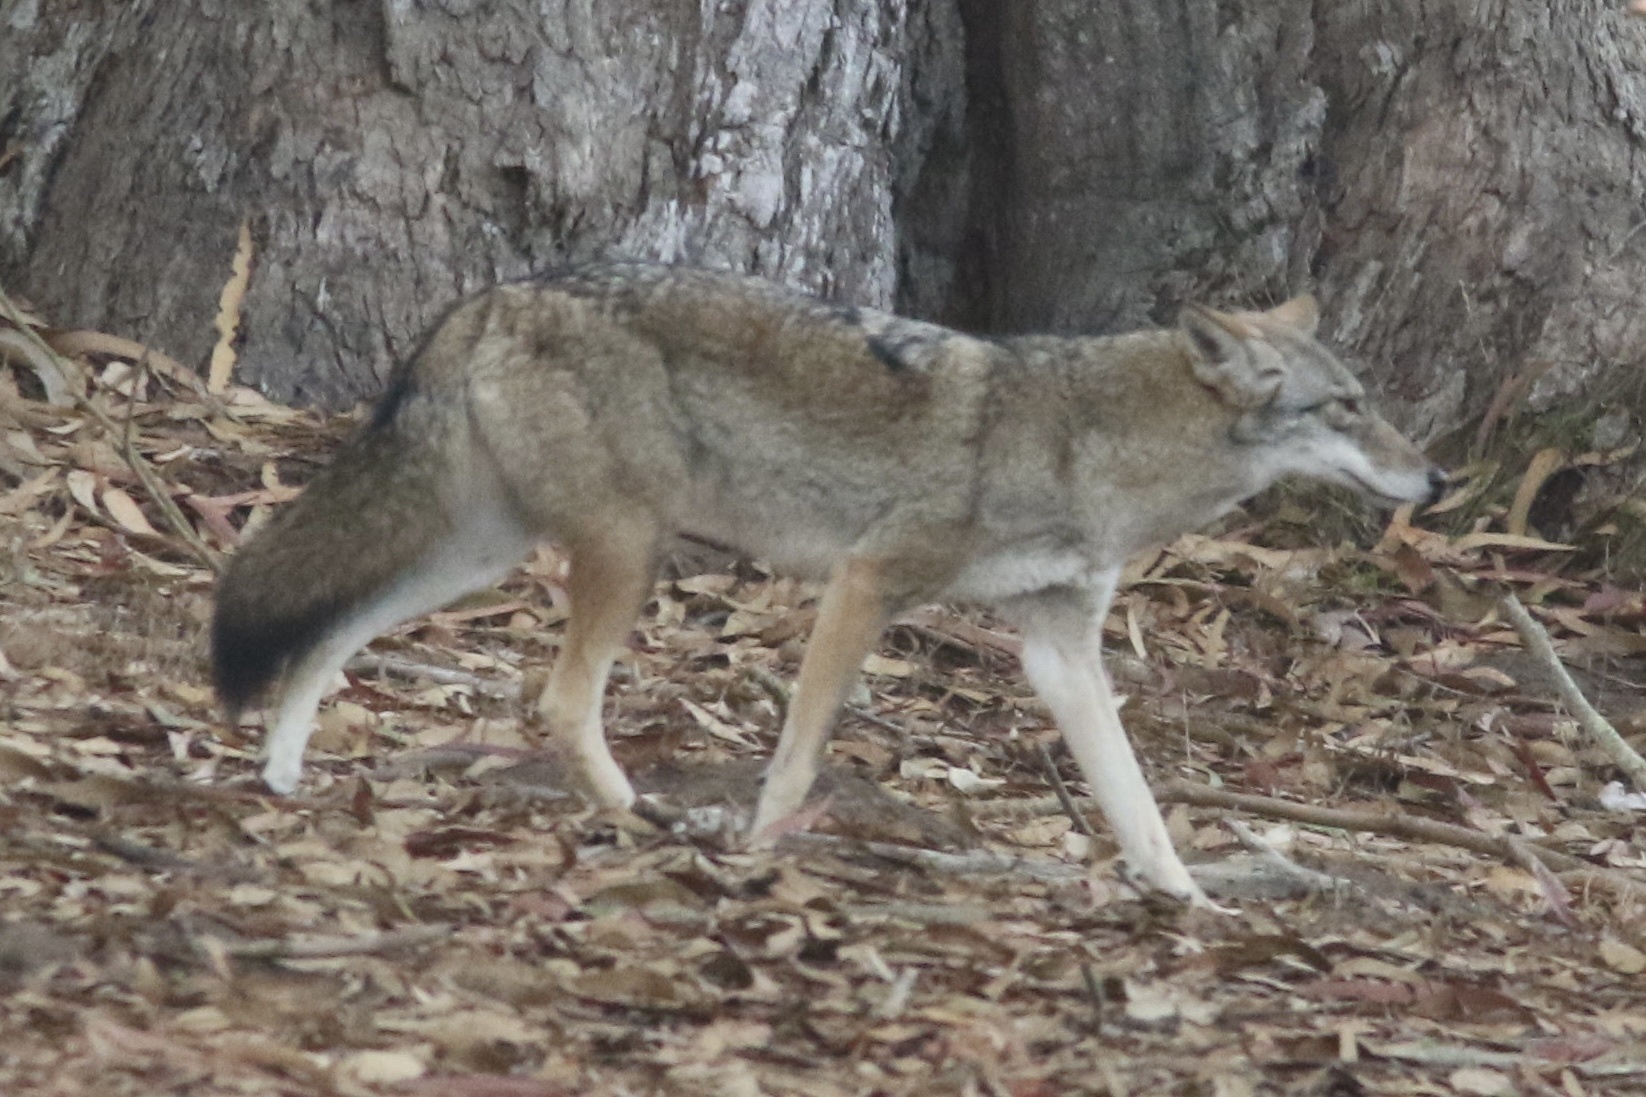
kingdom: Animalia
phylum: Chordata
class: Mammalia
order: Carnivora
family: Canidae
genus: Canis
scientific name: Canis latrans
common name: Coyote
